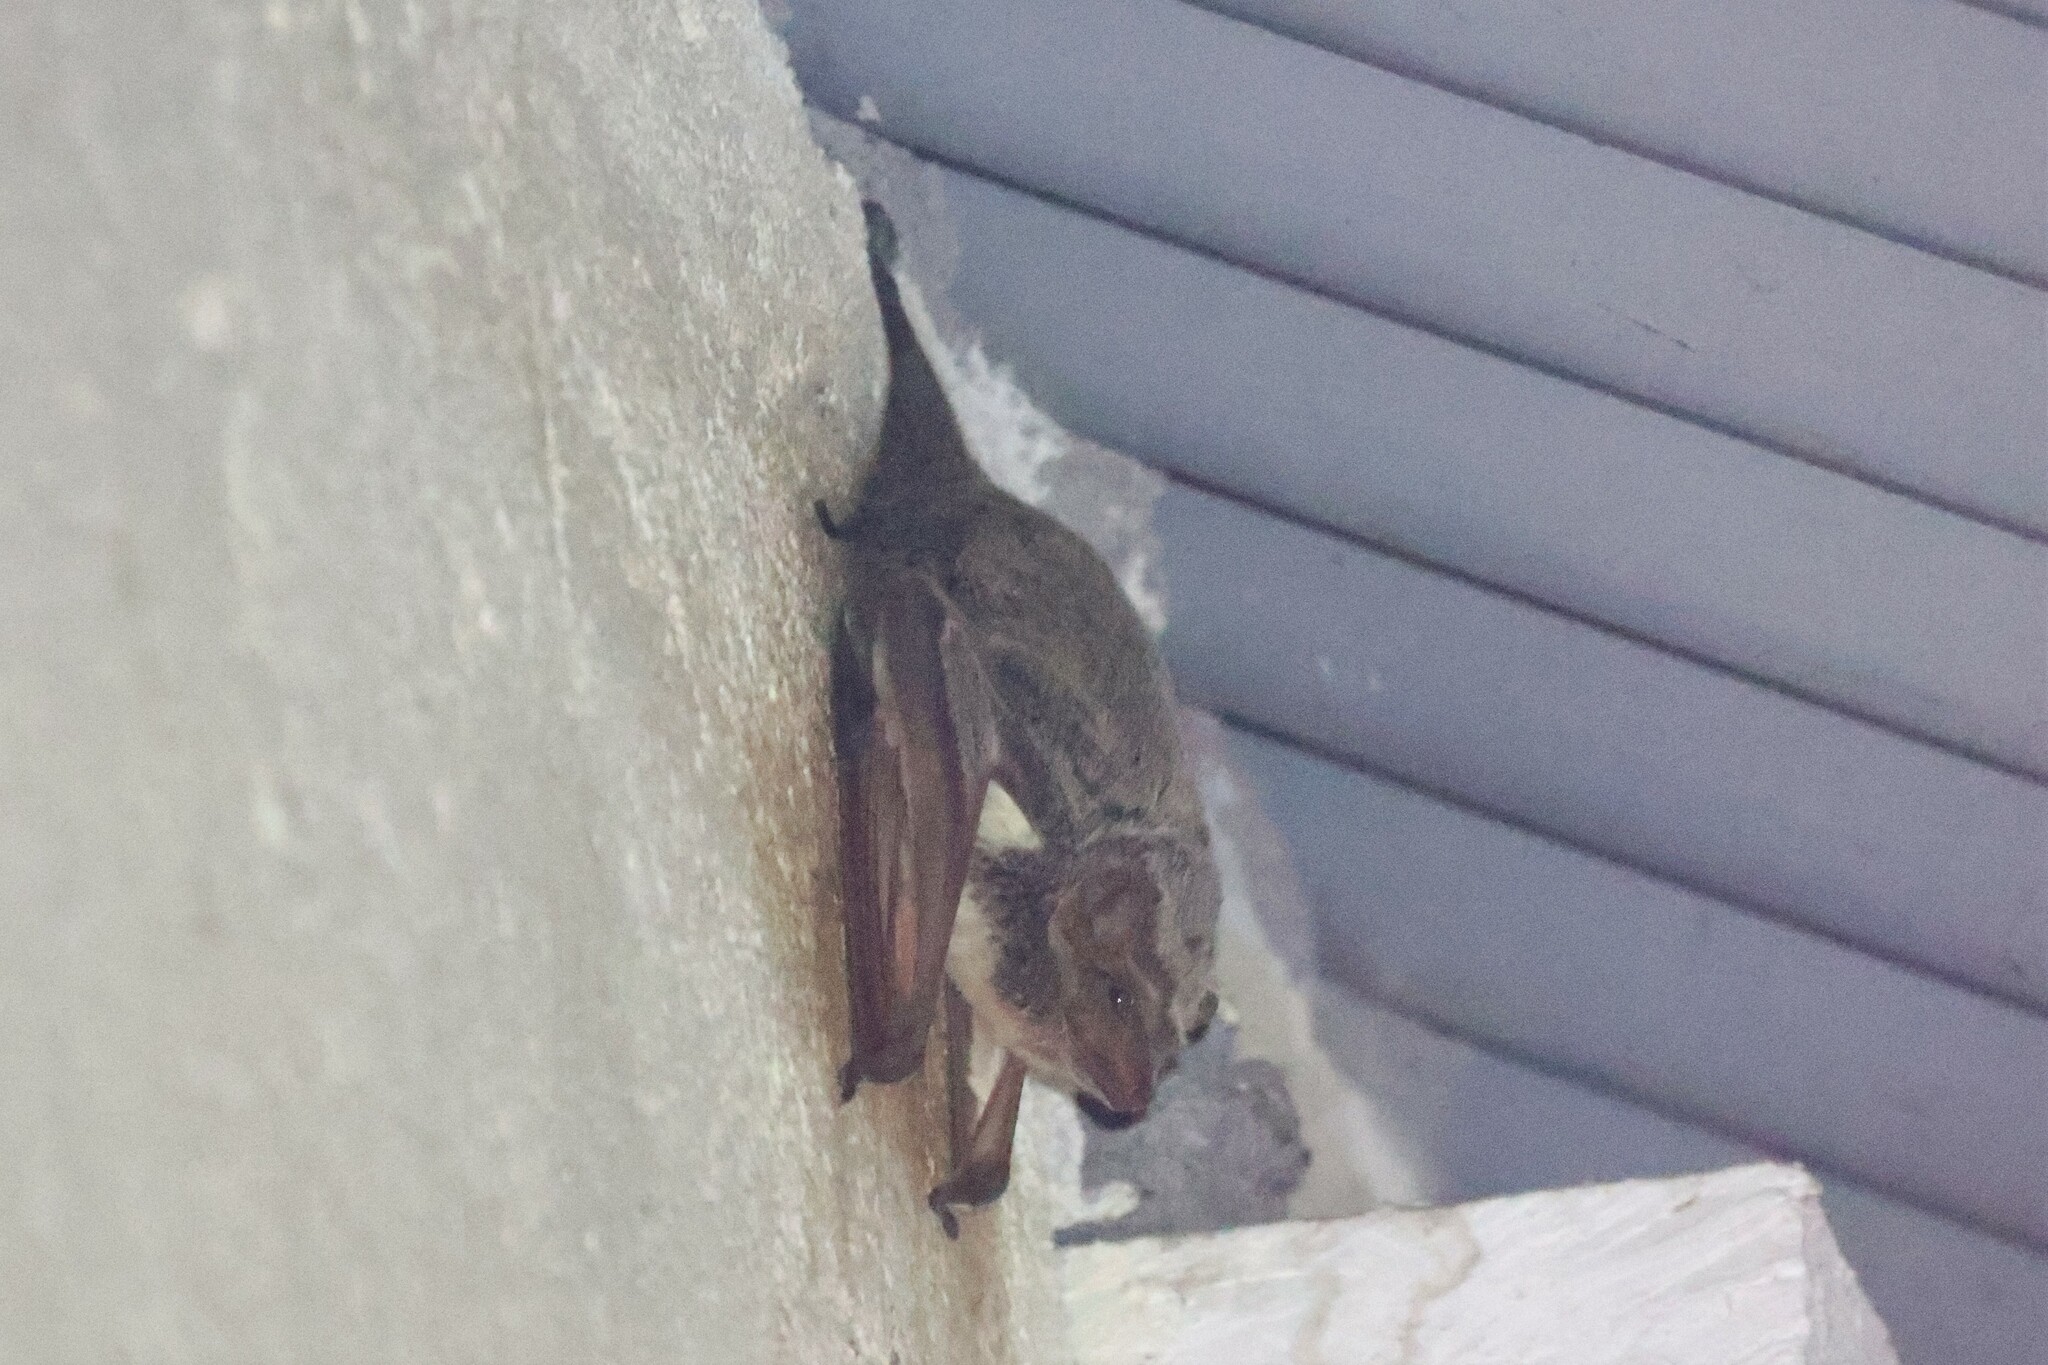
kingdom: Animalia
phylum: Chordata
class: Mammalia
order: Chiroptera
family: Emballonuridae
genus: Taphozous
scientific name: Taphozous mauritianus
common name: Mauritian tomb bat
